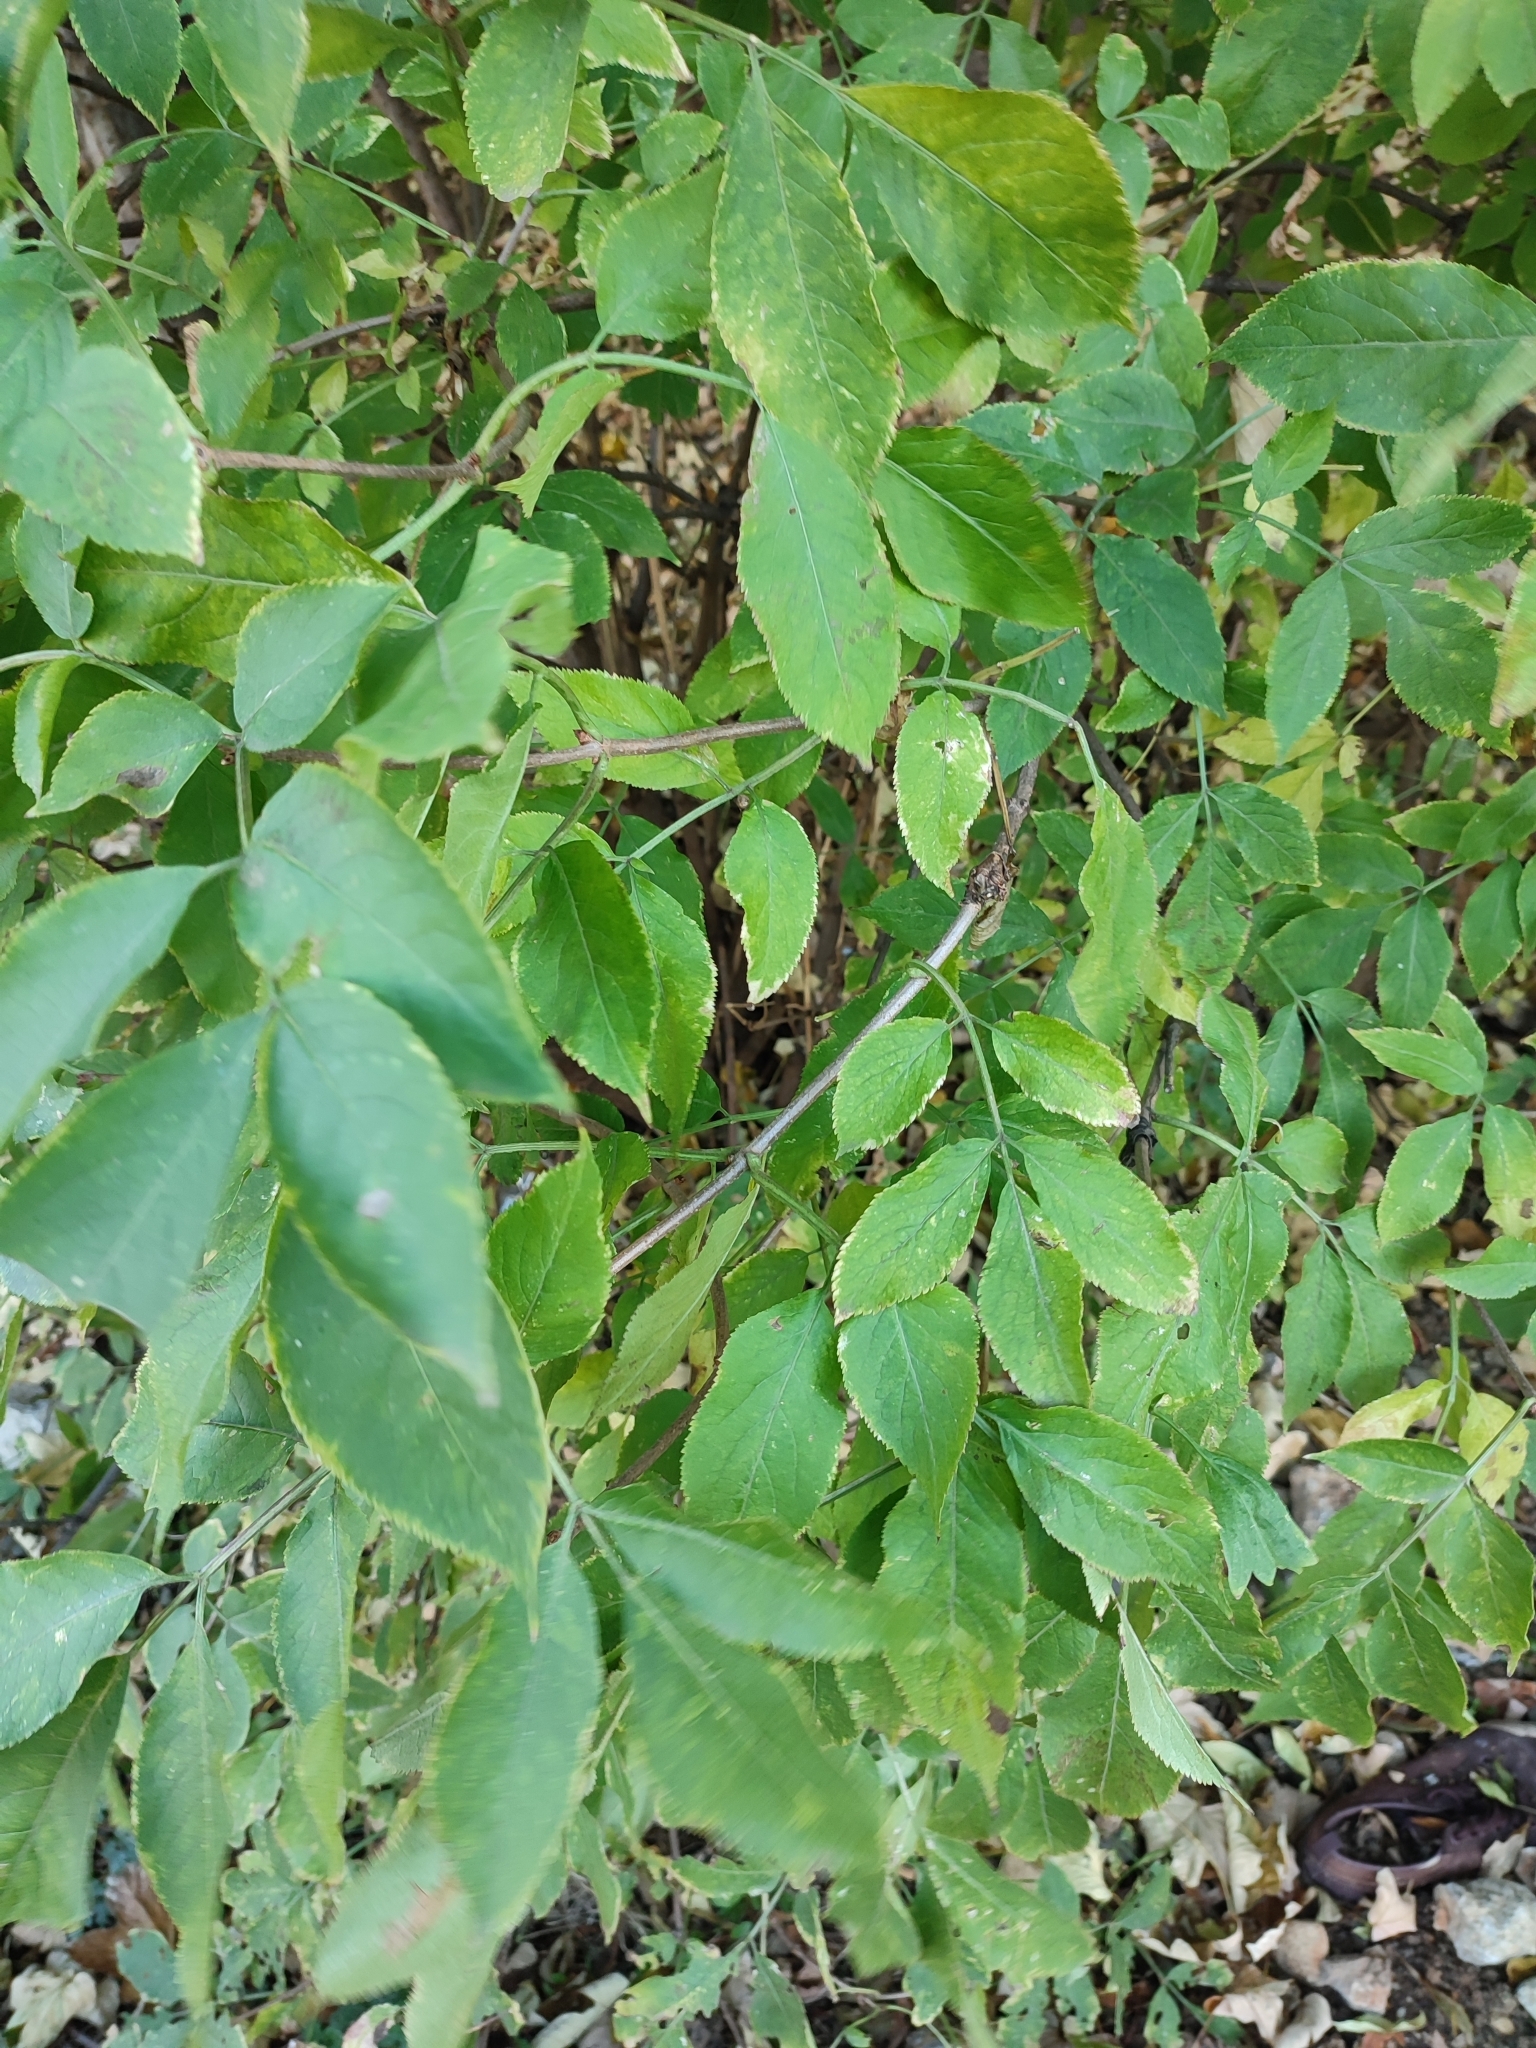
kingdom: Plantae
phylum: Tracheophyta
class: Magnoliopsida
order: Dipsacales
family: Viburnaceae
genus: Sambucus
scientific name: Sambucus nigra
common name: Elder
